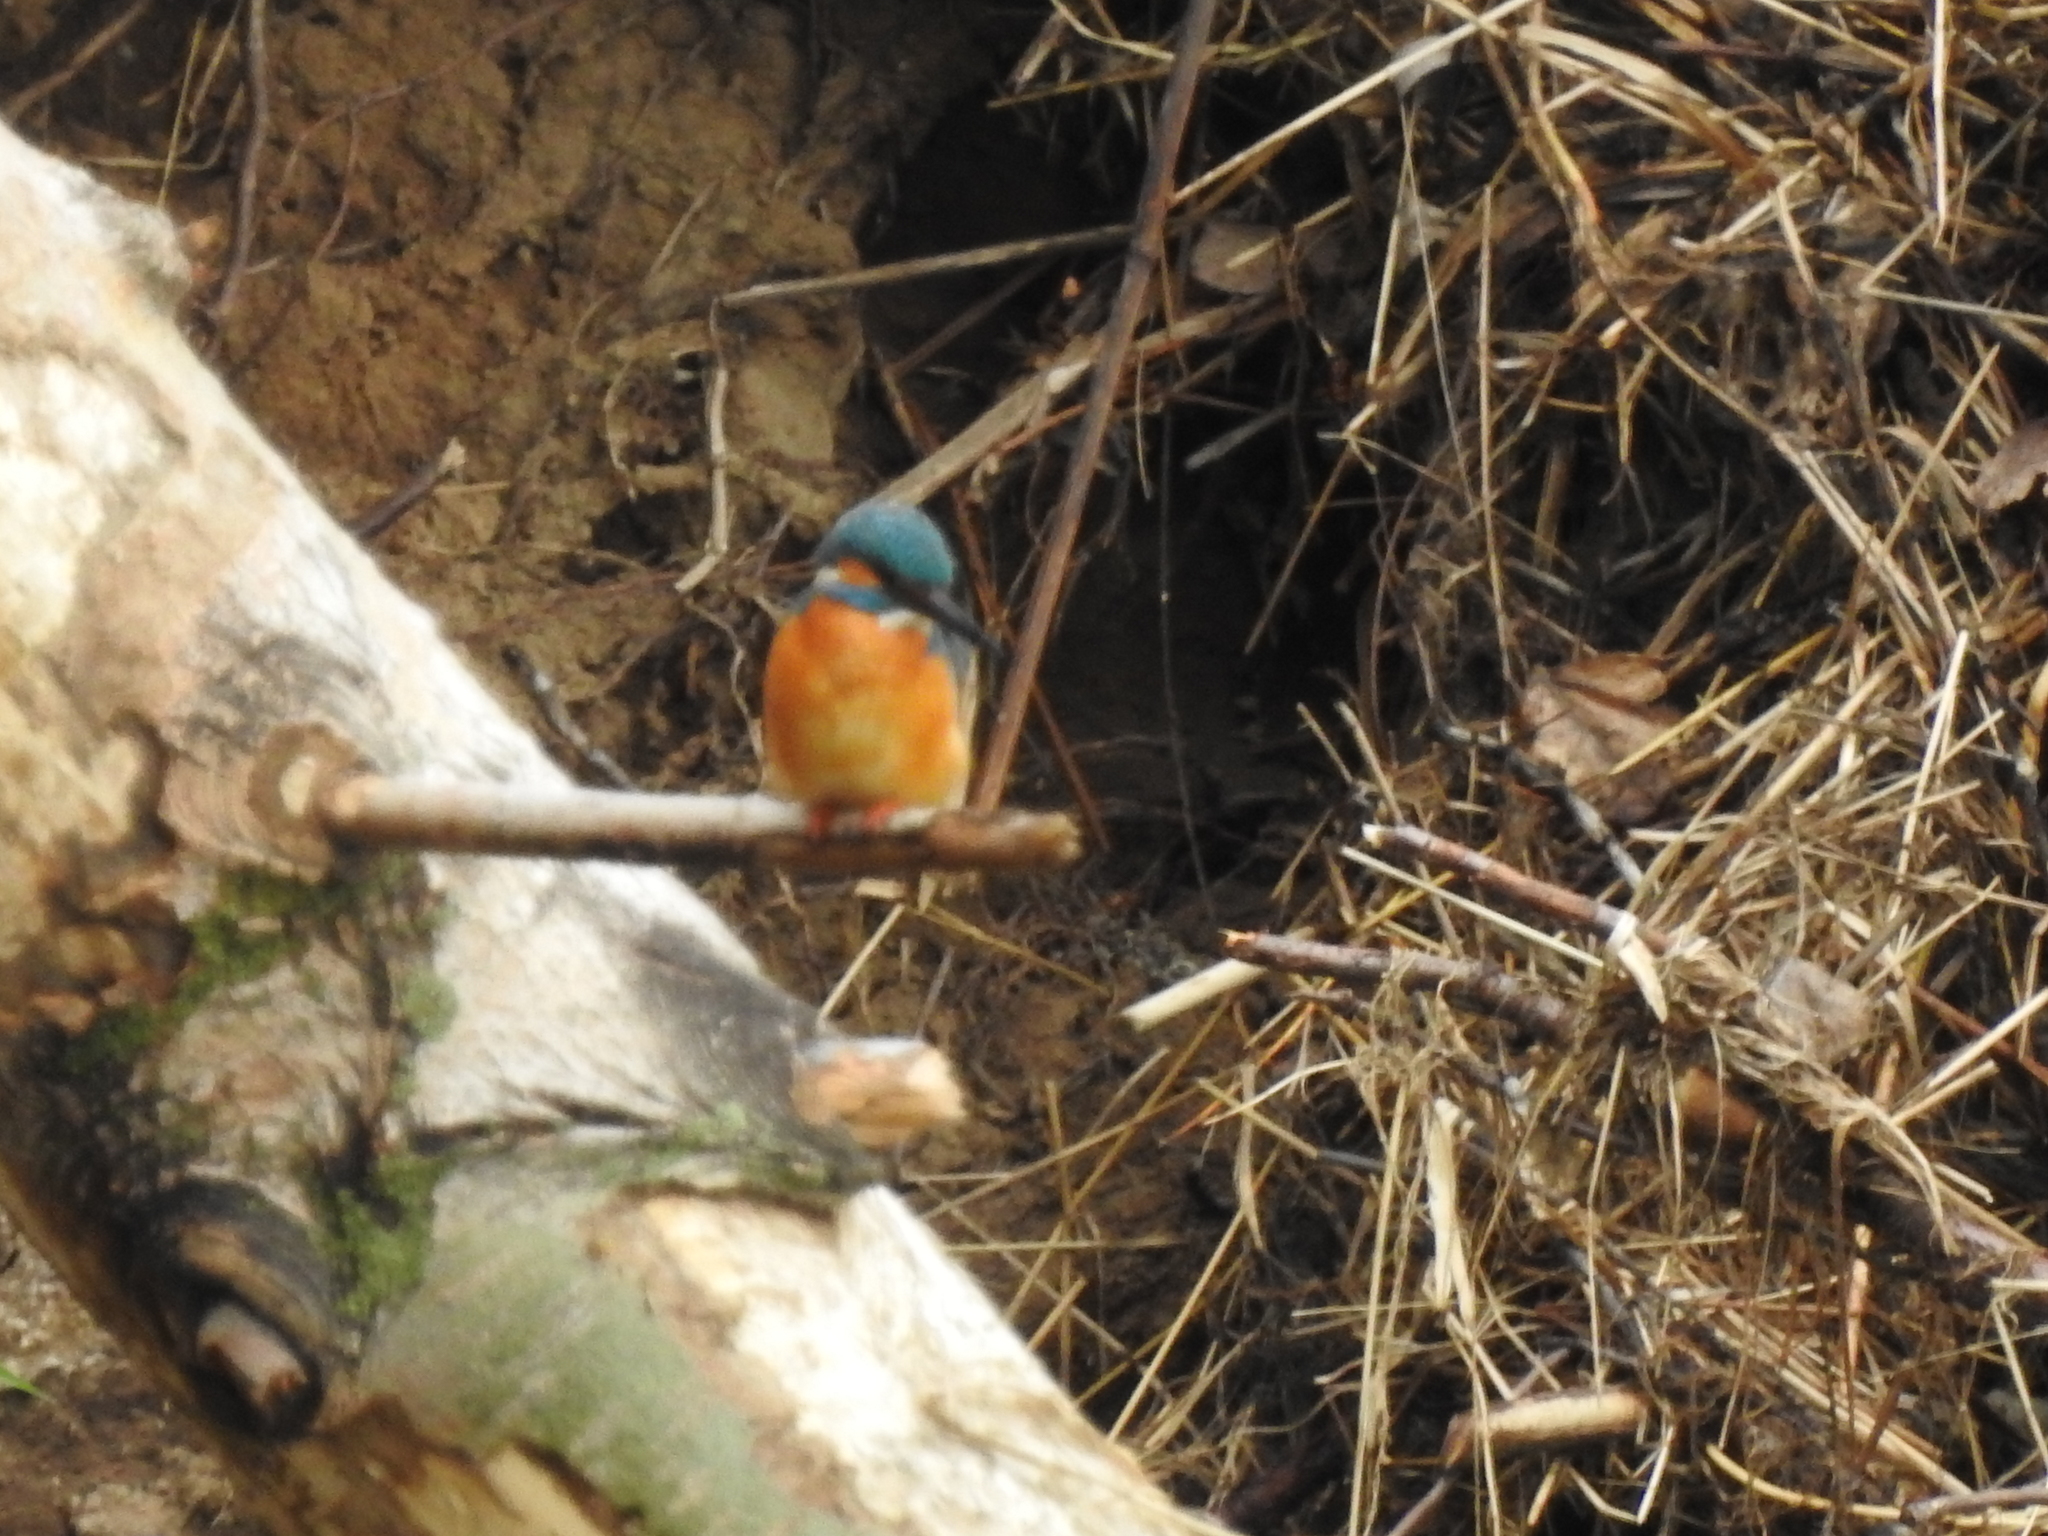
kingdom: Animalia
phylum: Chordata
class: Aves
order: Coraciiformes
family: Alcedinidae
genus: Alcedo
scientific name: Alcedo atthis
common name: Common kingfisher
